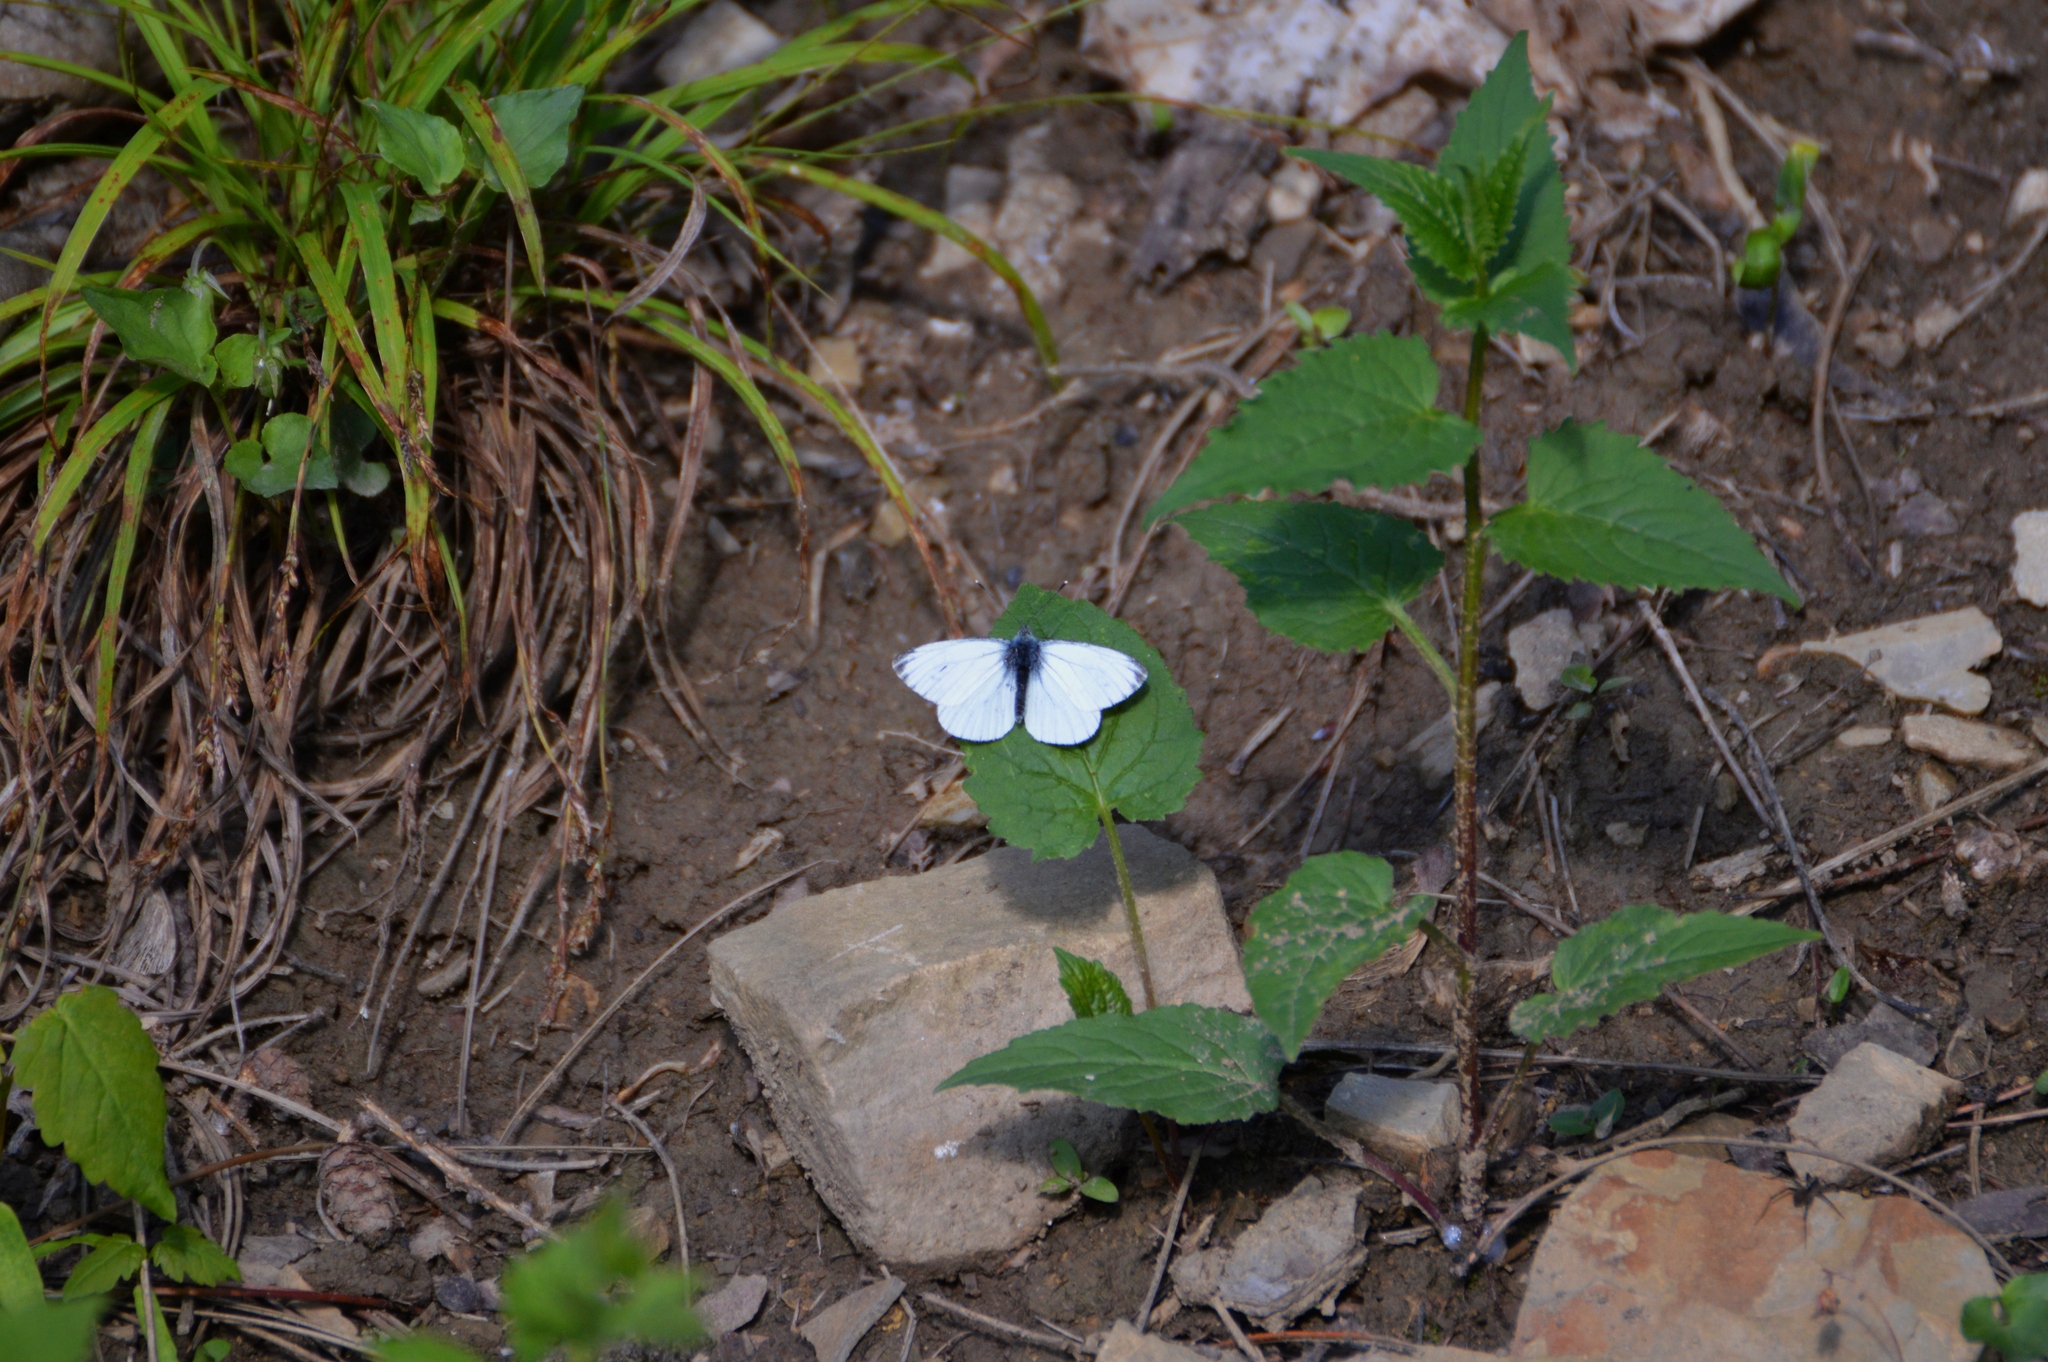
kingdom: Animalia
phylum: Arthropoda
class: Insecta
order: Lepidoptera
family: Pieridae
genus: Pieris
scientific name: Pieris napi
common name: Green-veined white
